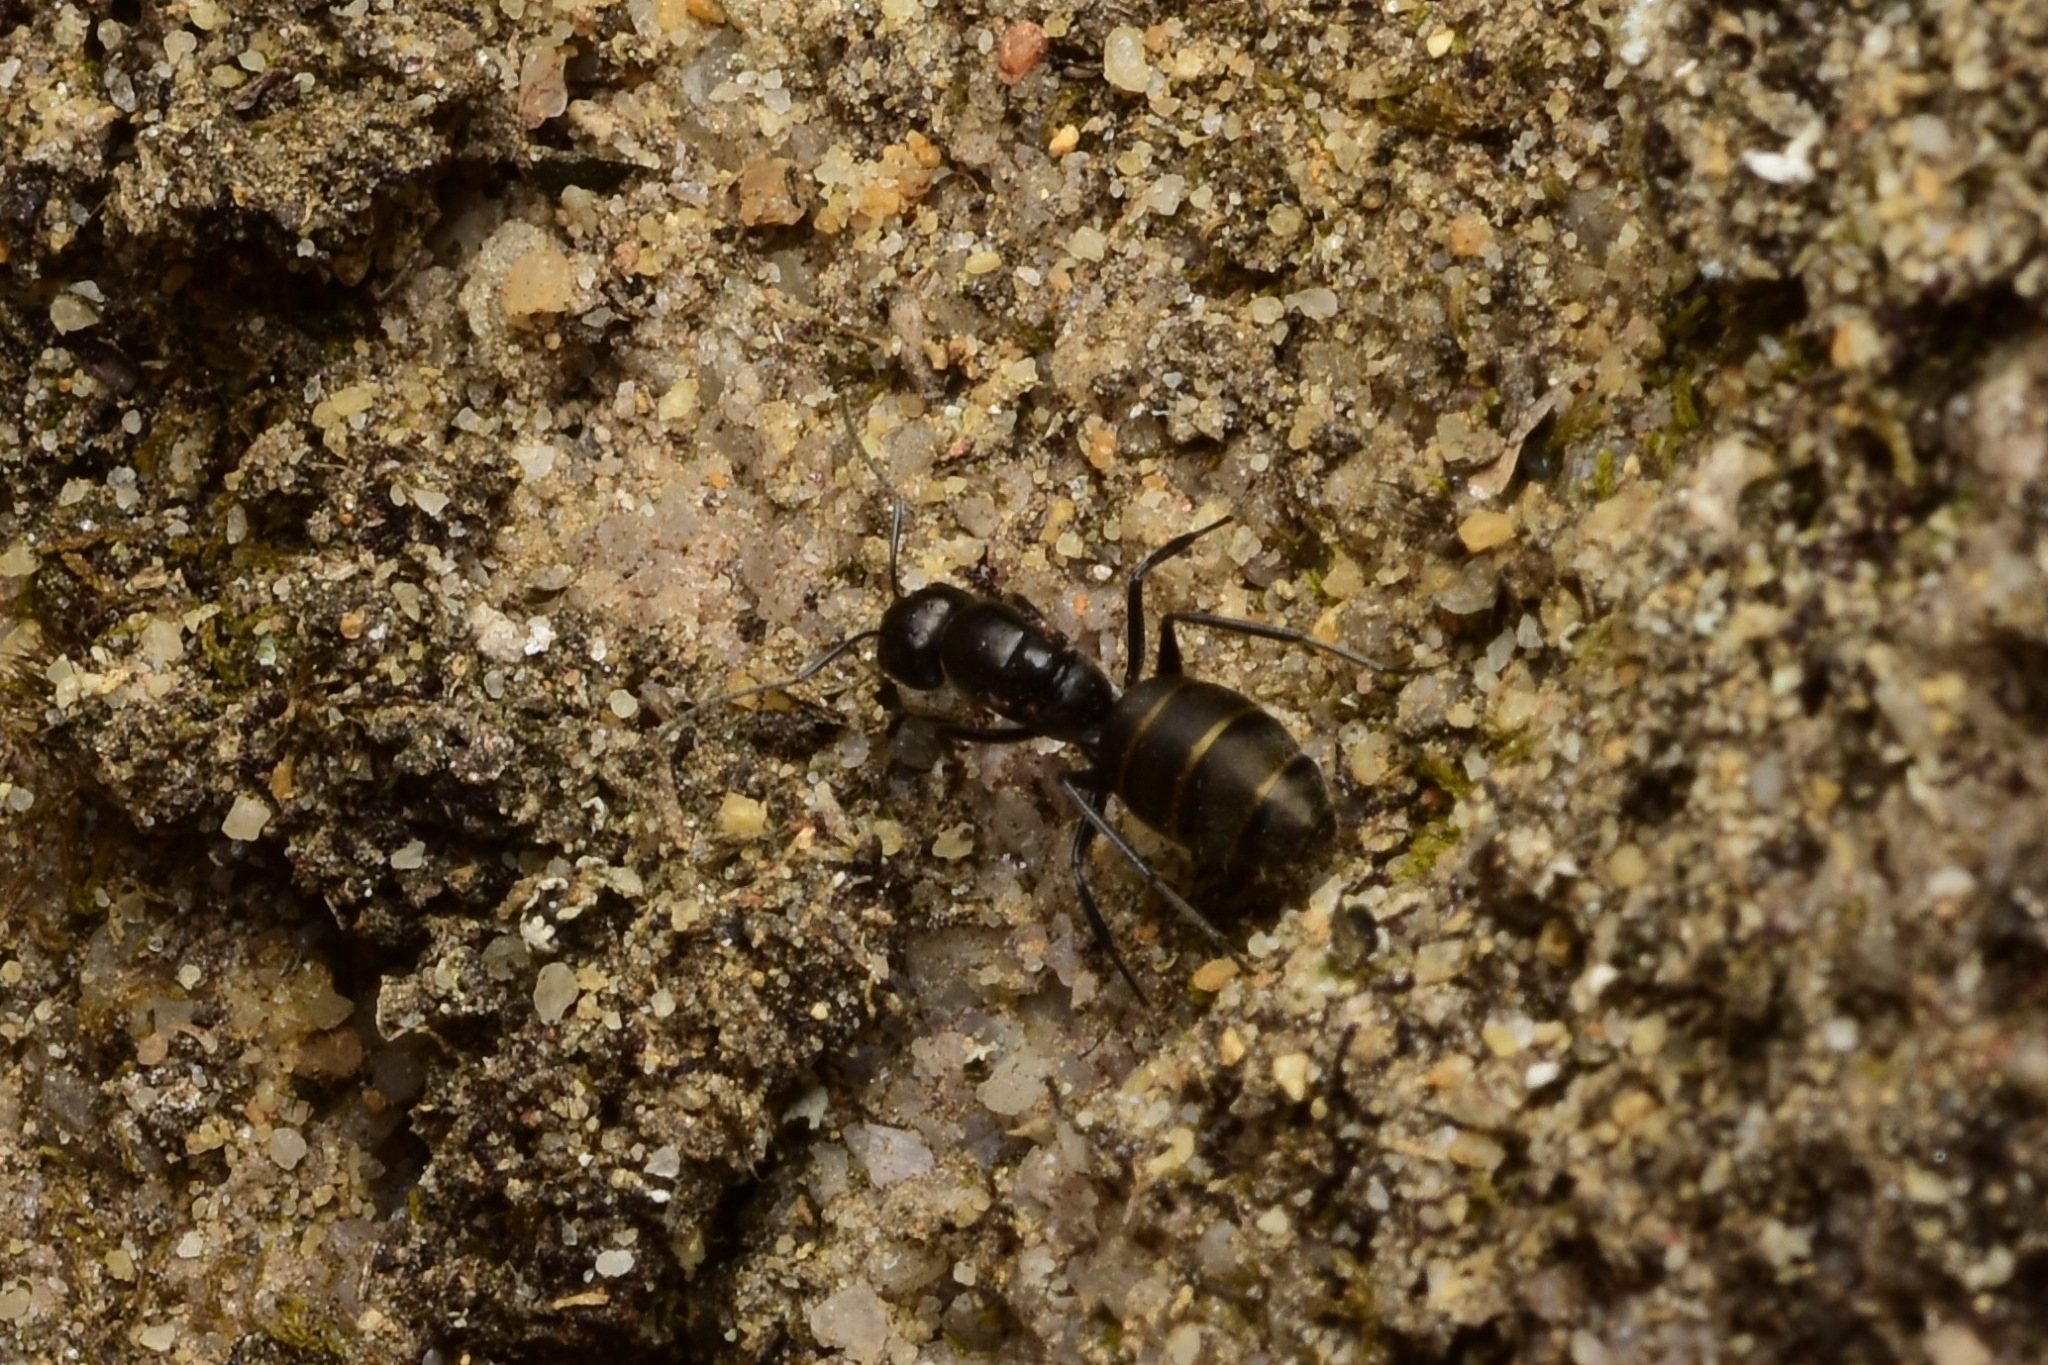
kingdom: Animalia
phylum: Arthropoda
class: Insecta
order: Hymenoptera
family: Formicidae
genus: Camponotus
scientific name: Camponotus aeneopilosus
